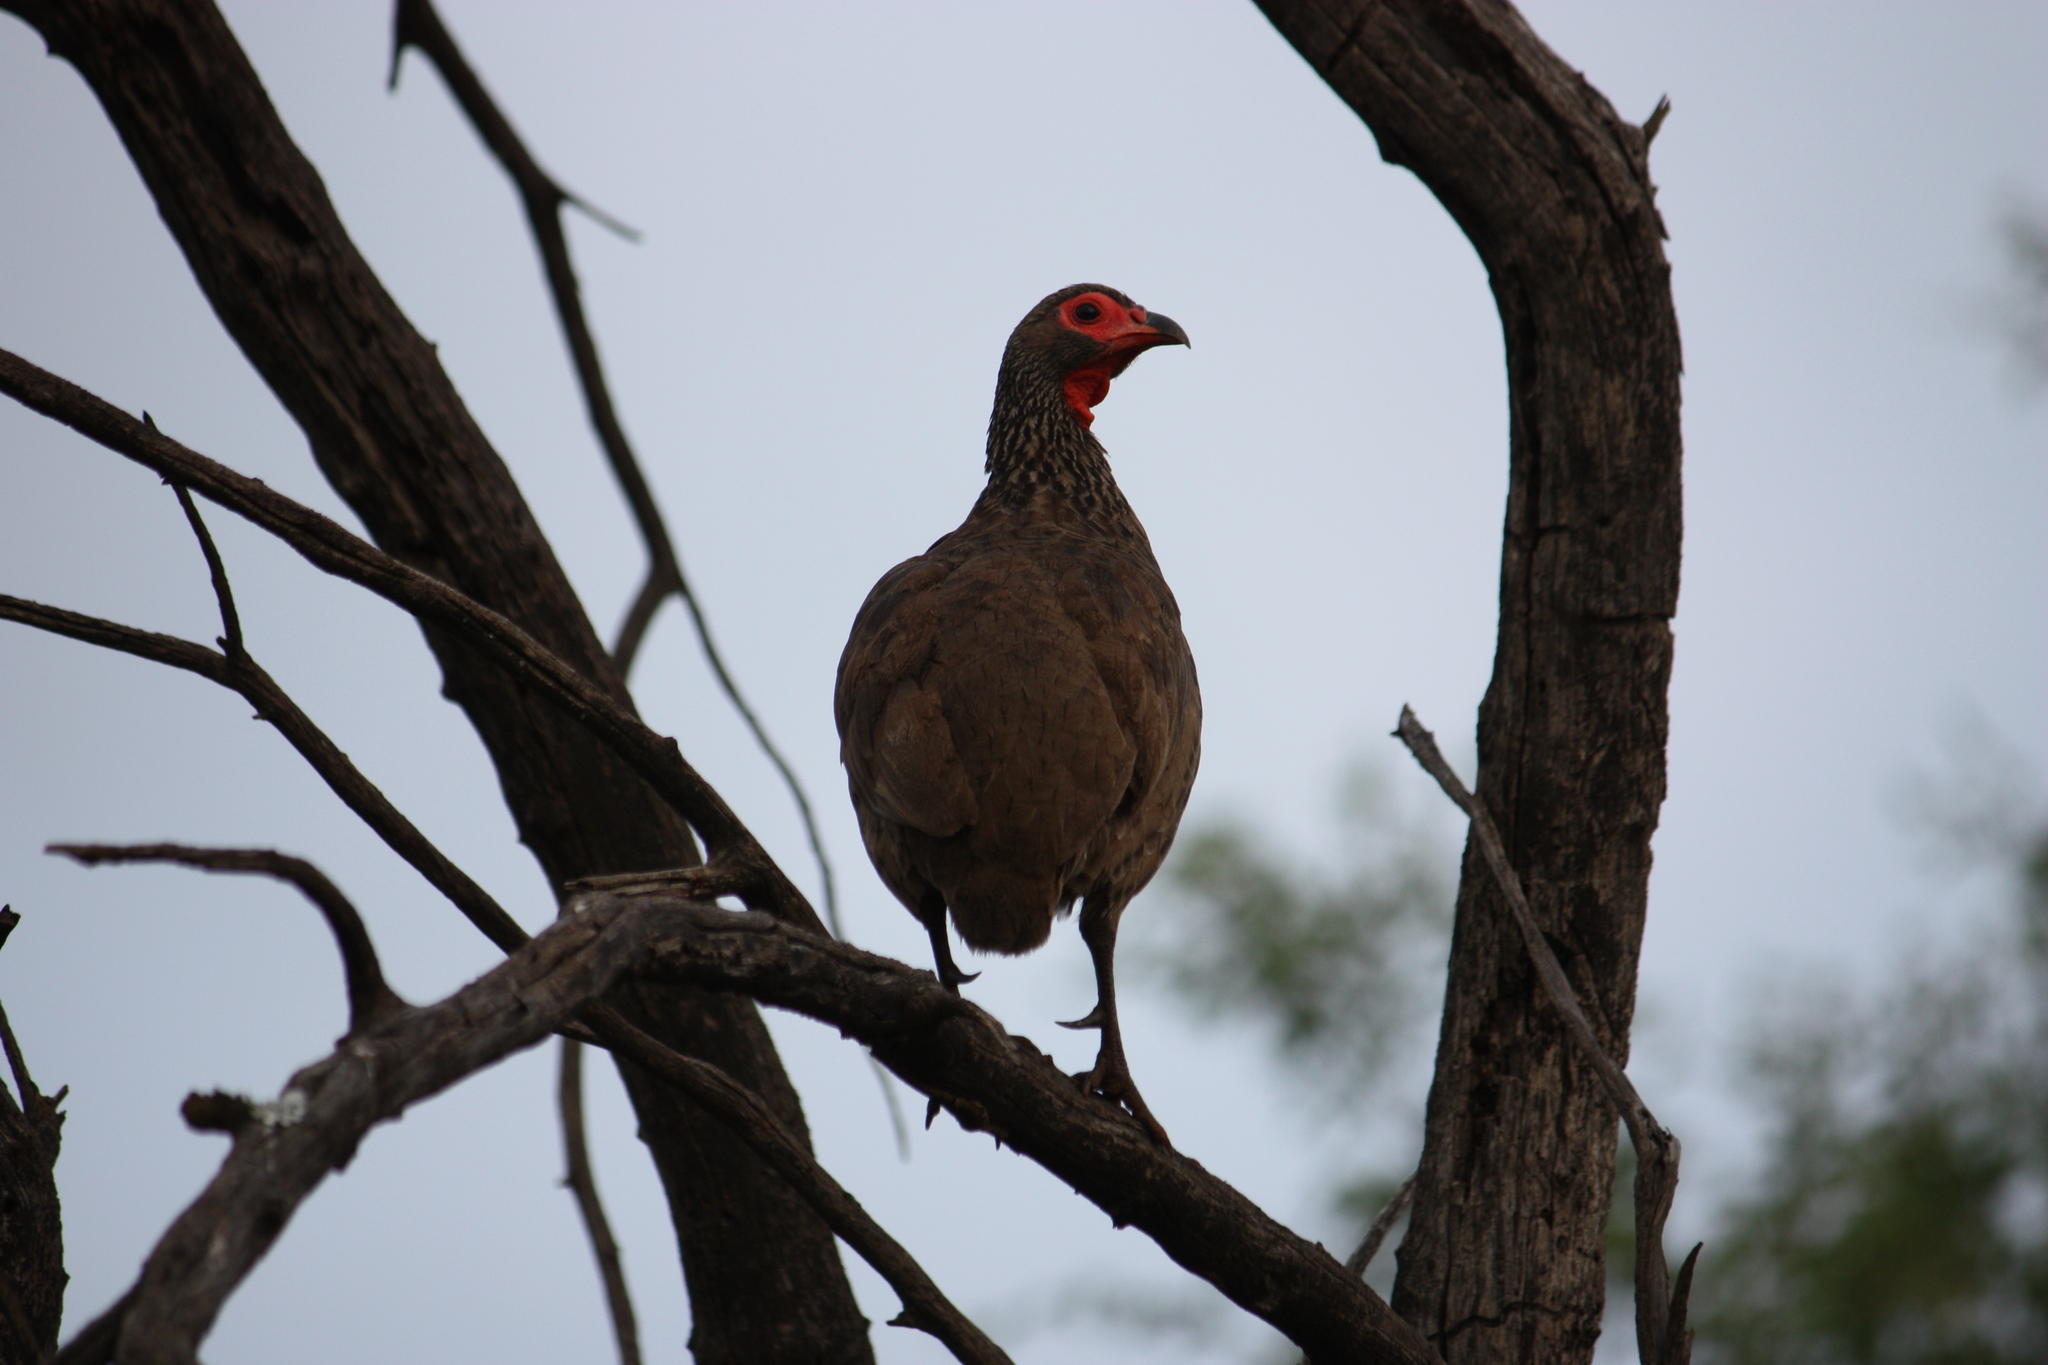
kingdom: Animalia
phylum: Chordata
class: Aves
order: Galliformes
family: Phasianidae
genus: Pternistis
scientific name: Pternistis swainsonii
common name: Swainson's spurfowl
